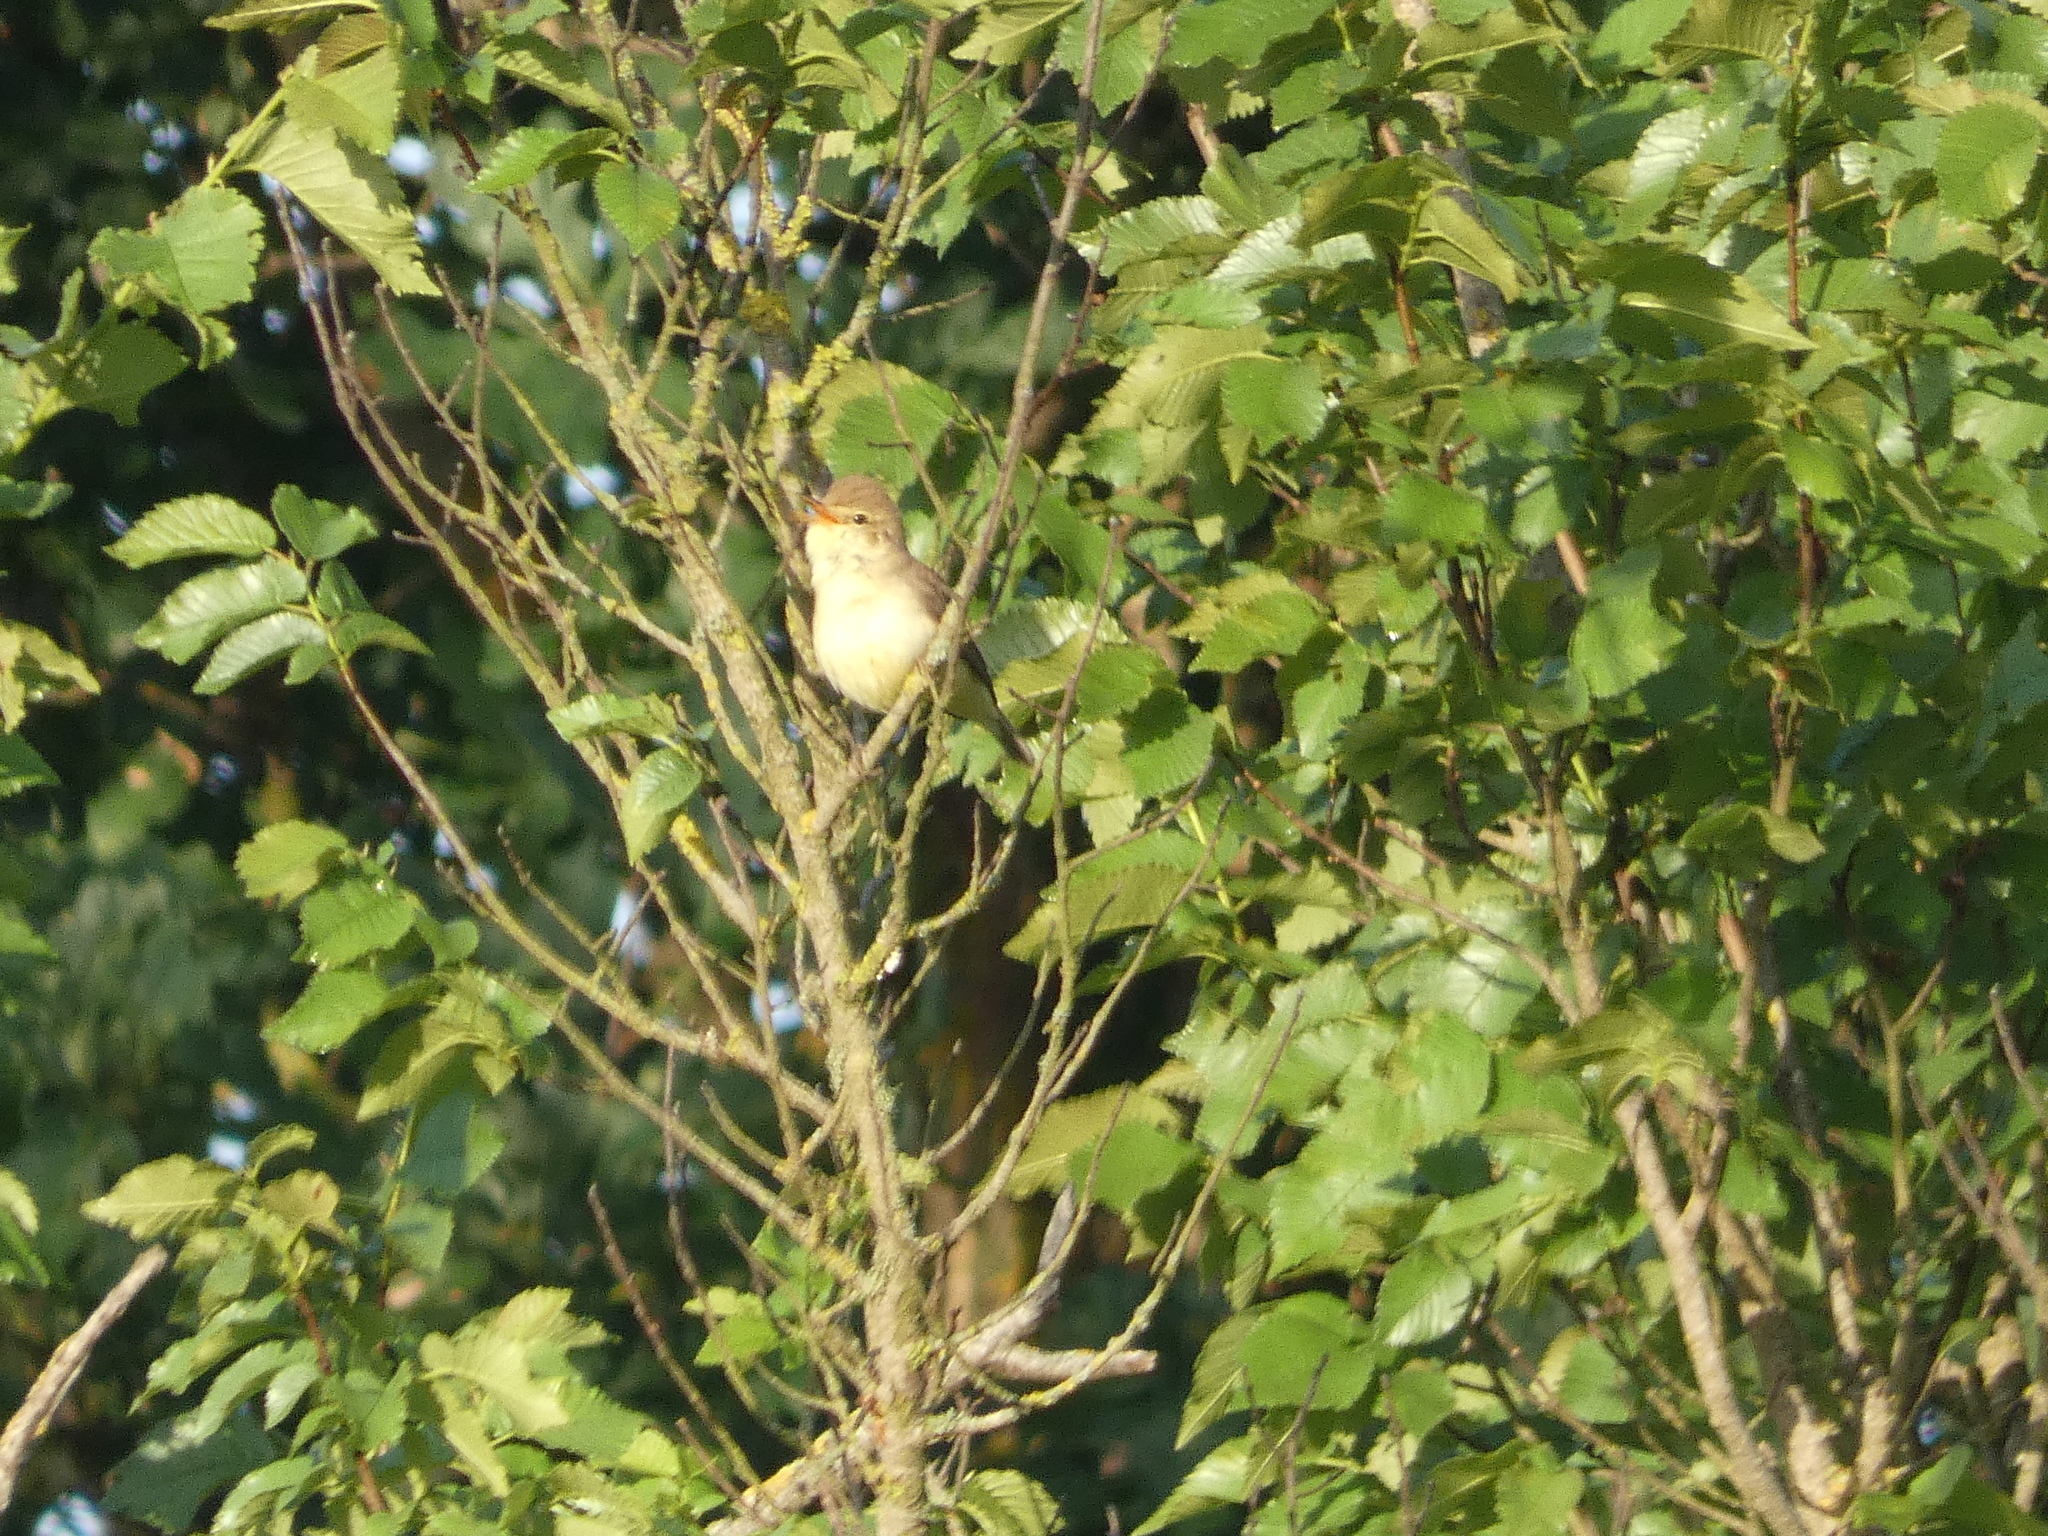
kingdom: Animalia
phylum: Chordata
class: Aves
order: Passeriformes
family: Acrocephalidae
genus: Hippolais
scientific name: Hippolais polyglotta
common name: Melodious warbler
